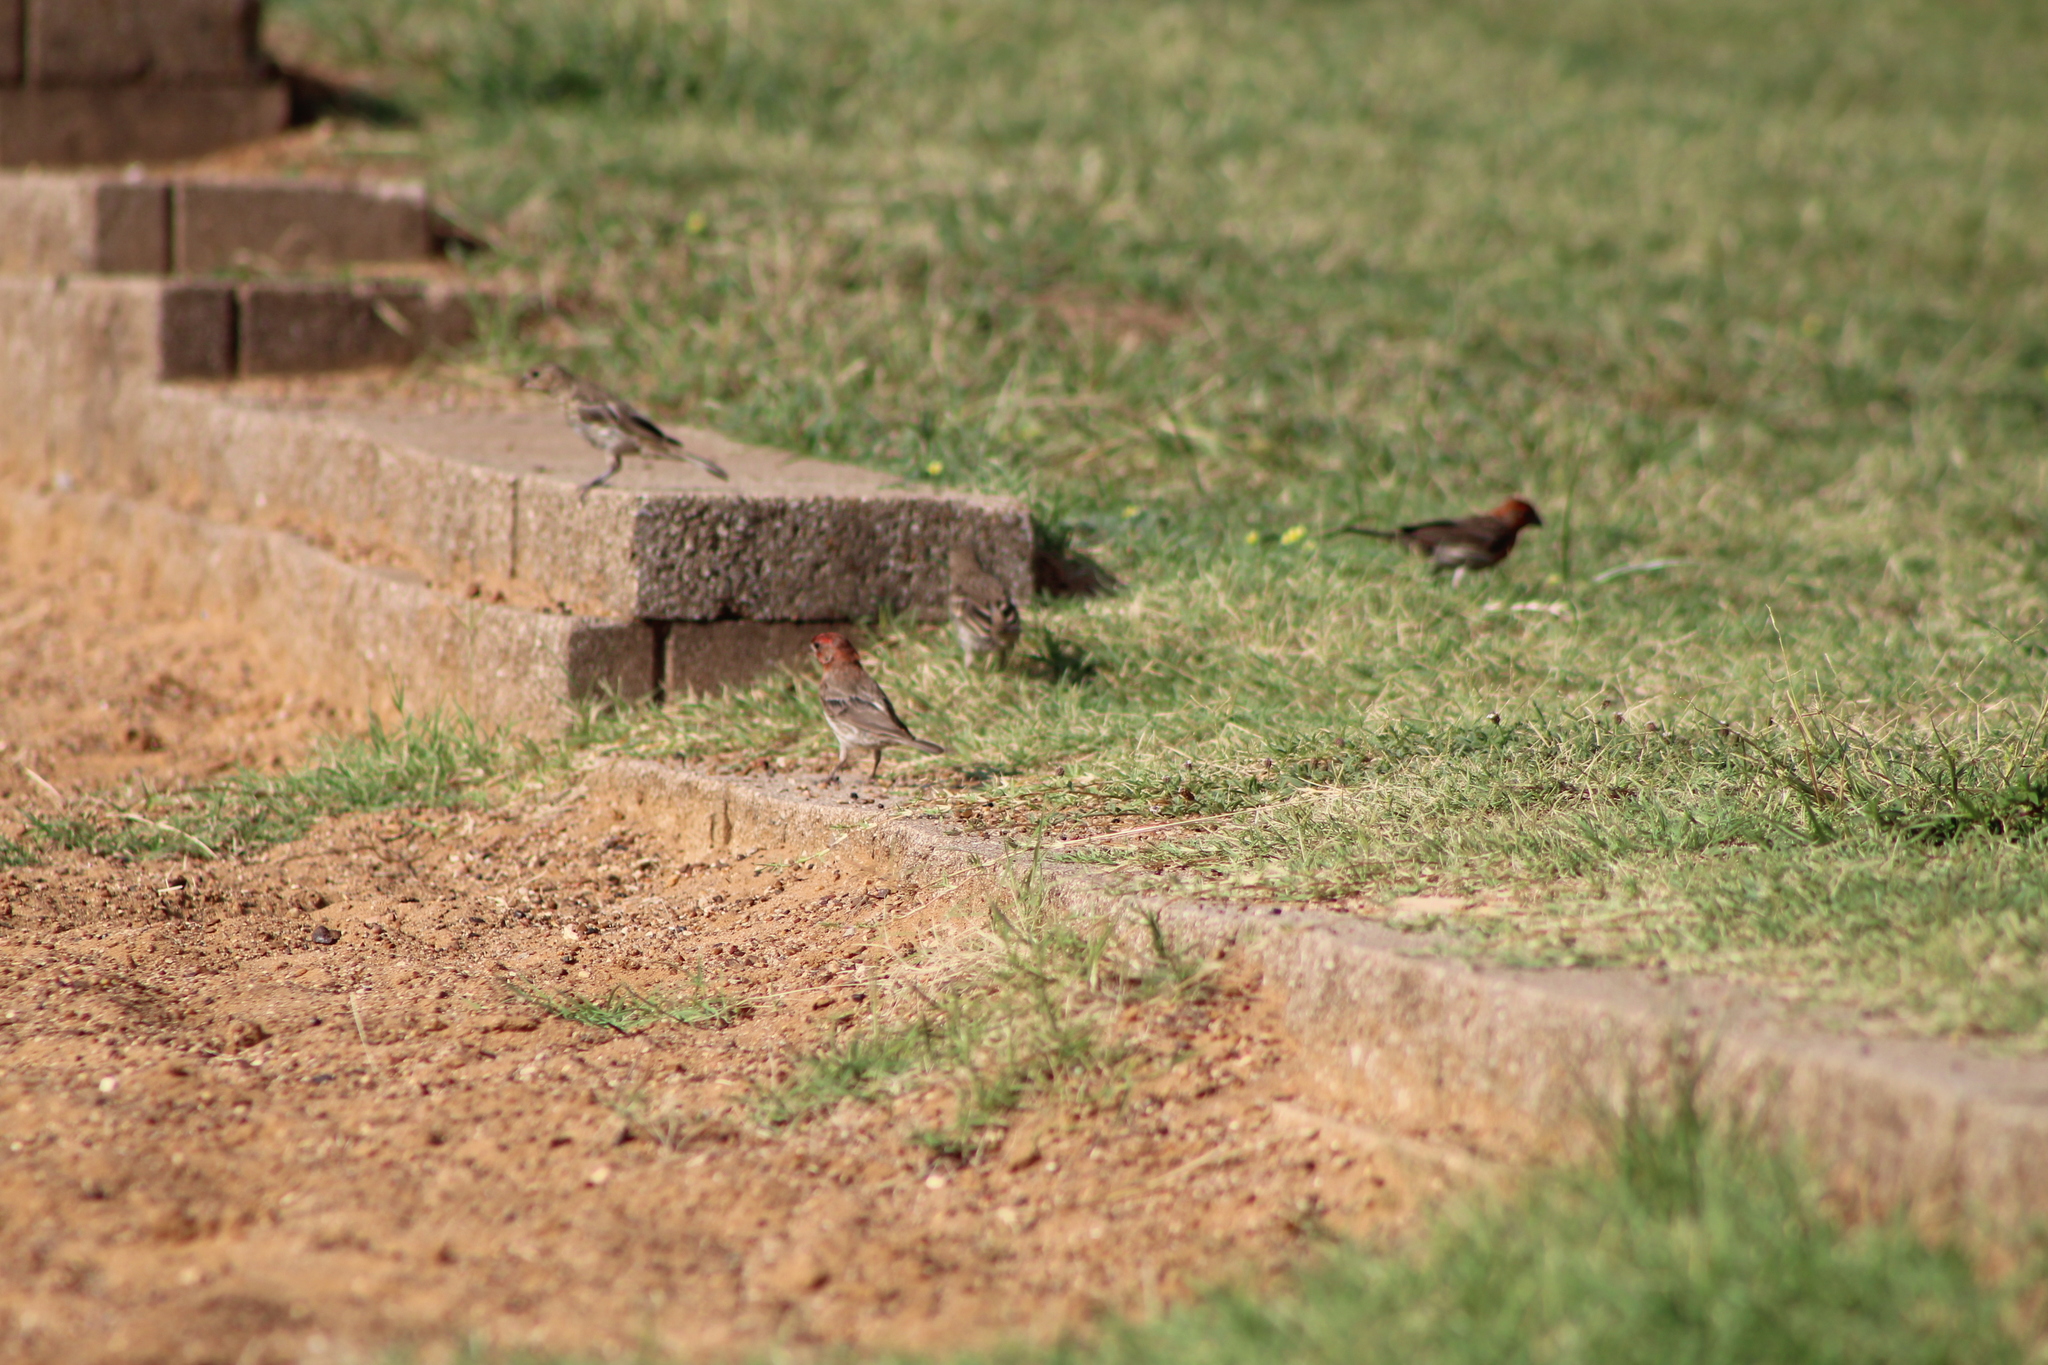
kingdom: Animalia
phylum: Chordata
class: Aves
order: Passeriformes
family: Fringillidae
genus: Haemorhous
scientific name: Haemorhous mexicanus
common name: House finch
